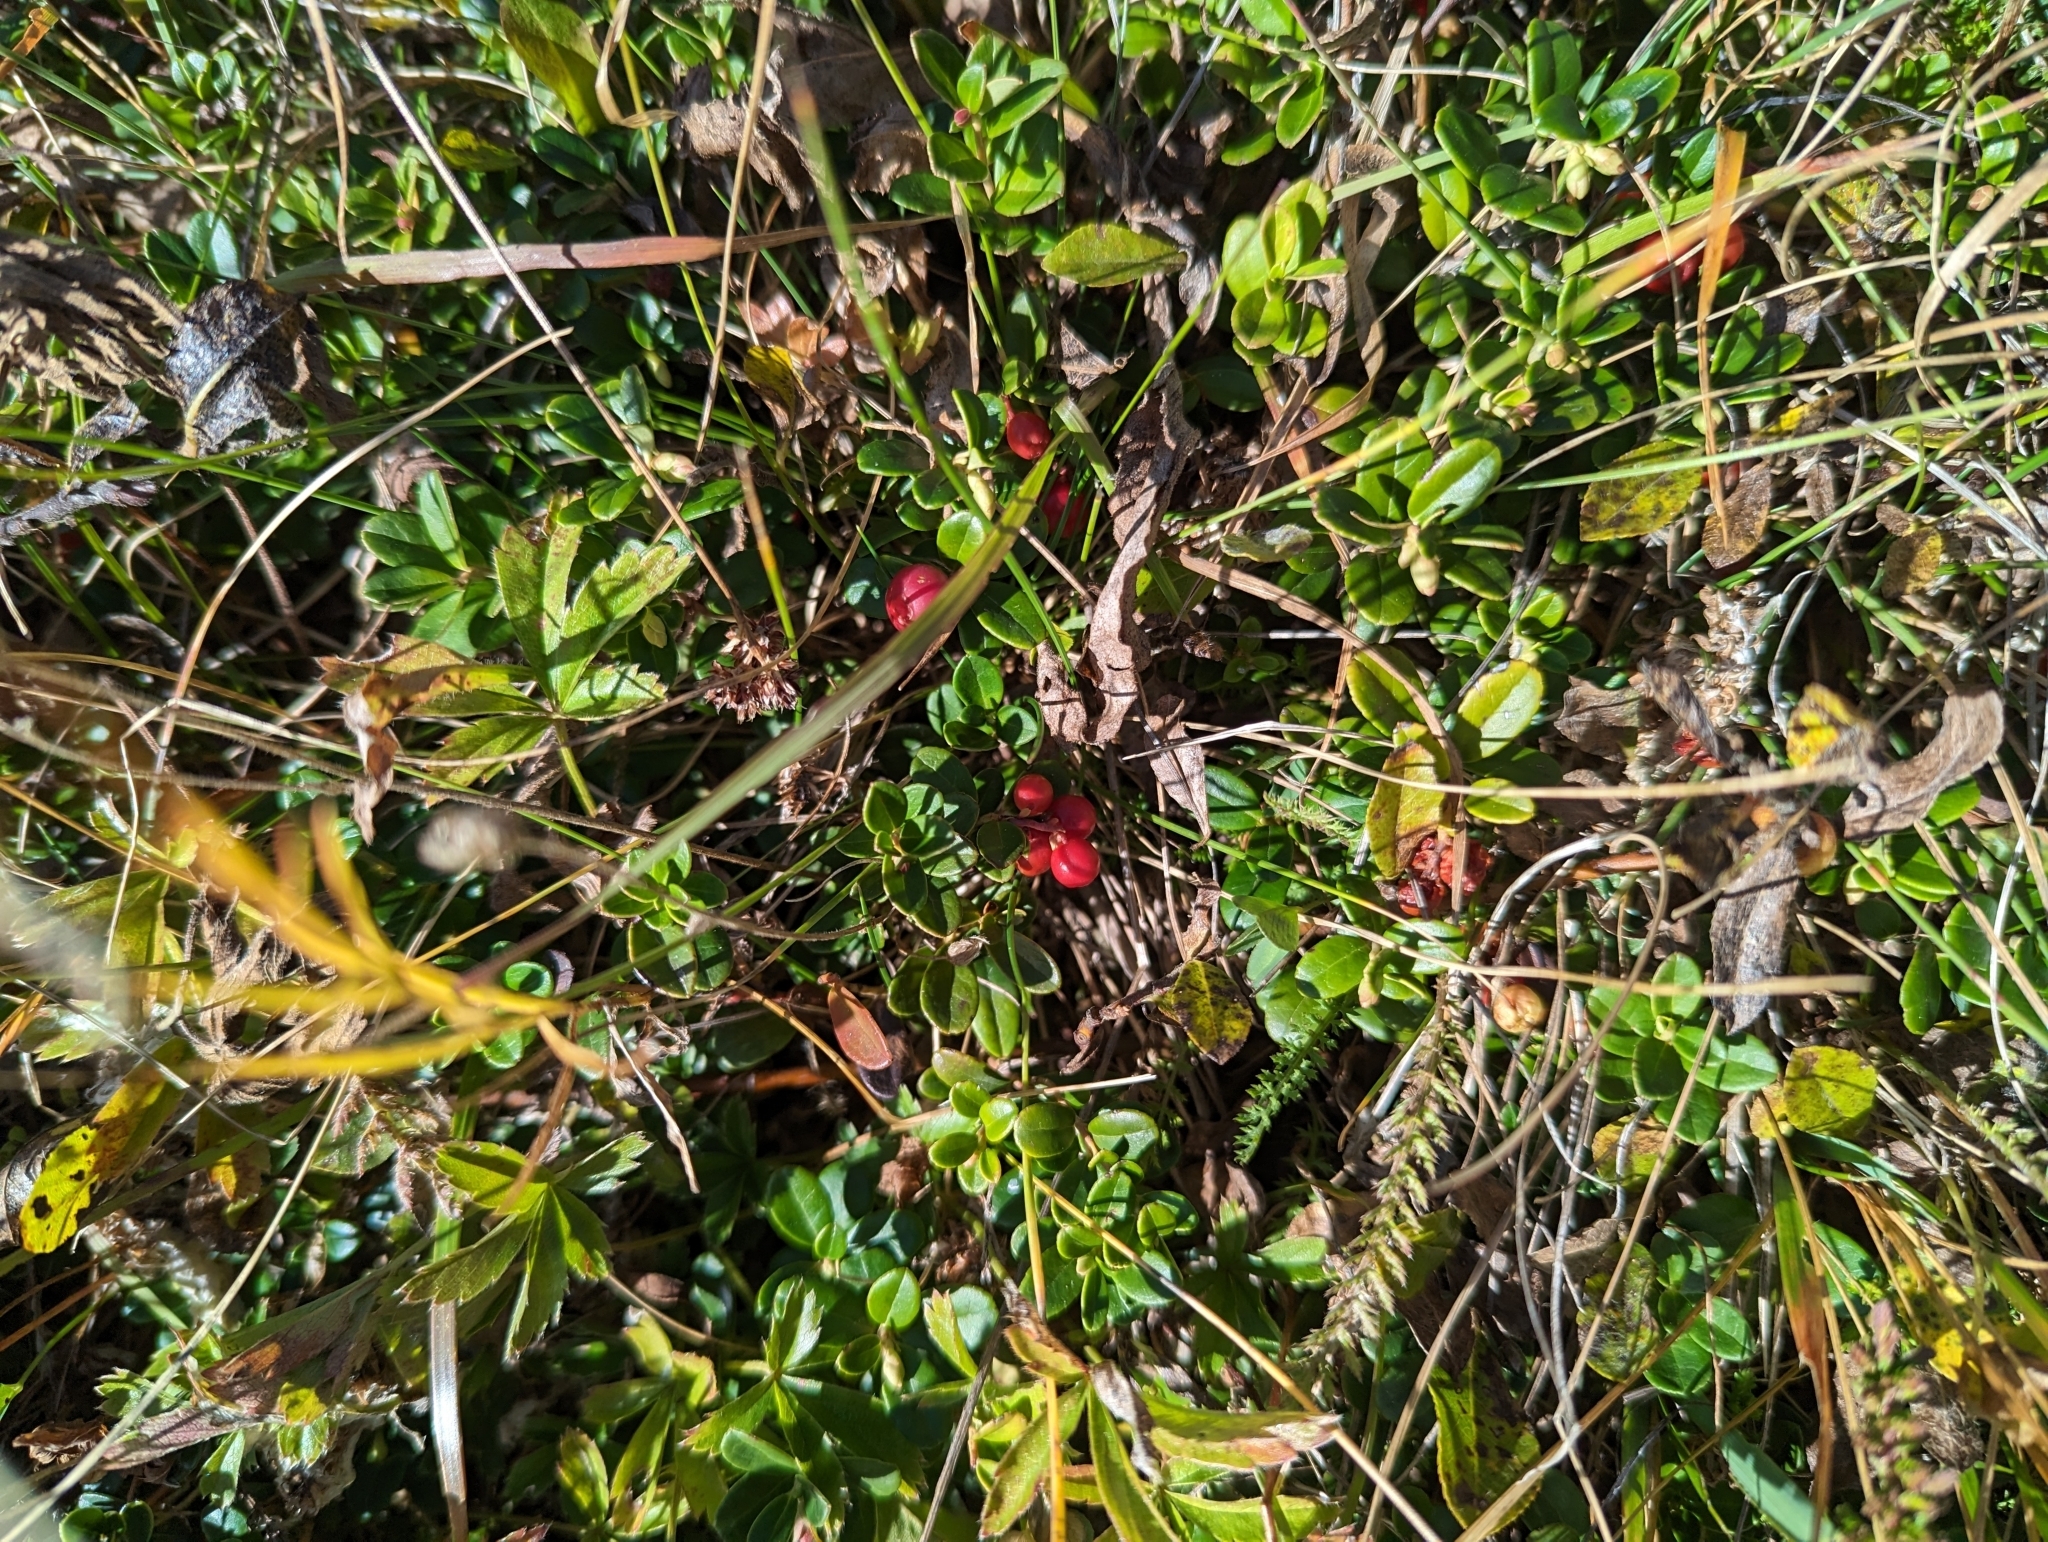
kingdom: Plantae
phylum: Tracheophyta
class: Magnoliopsida
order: Ericales
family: Ericaceae
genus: Arctostaphylos
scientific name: Arctostaphylos uva-ursi
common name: Bearberry
